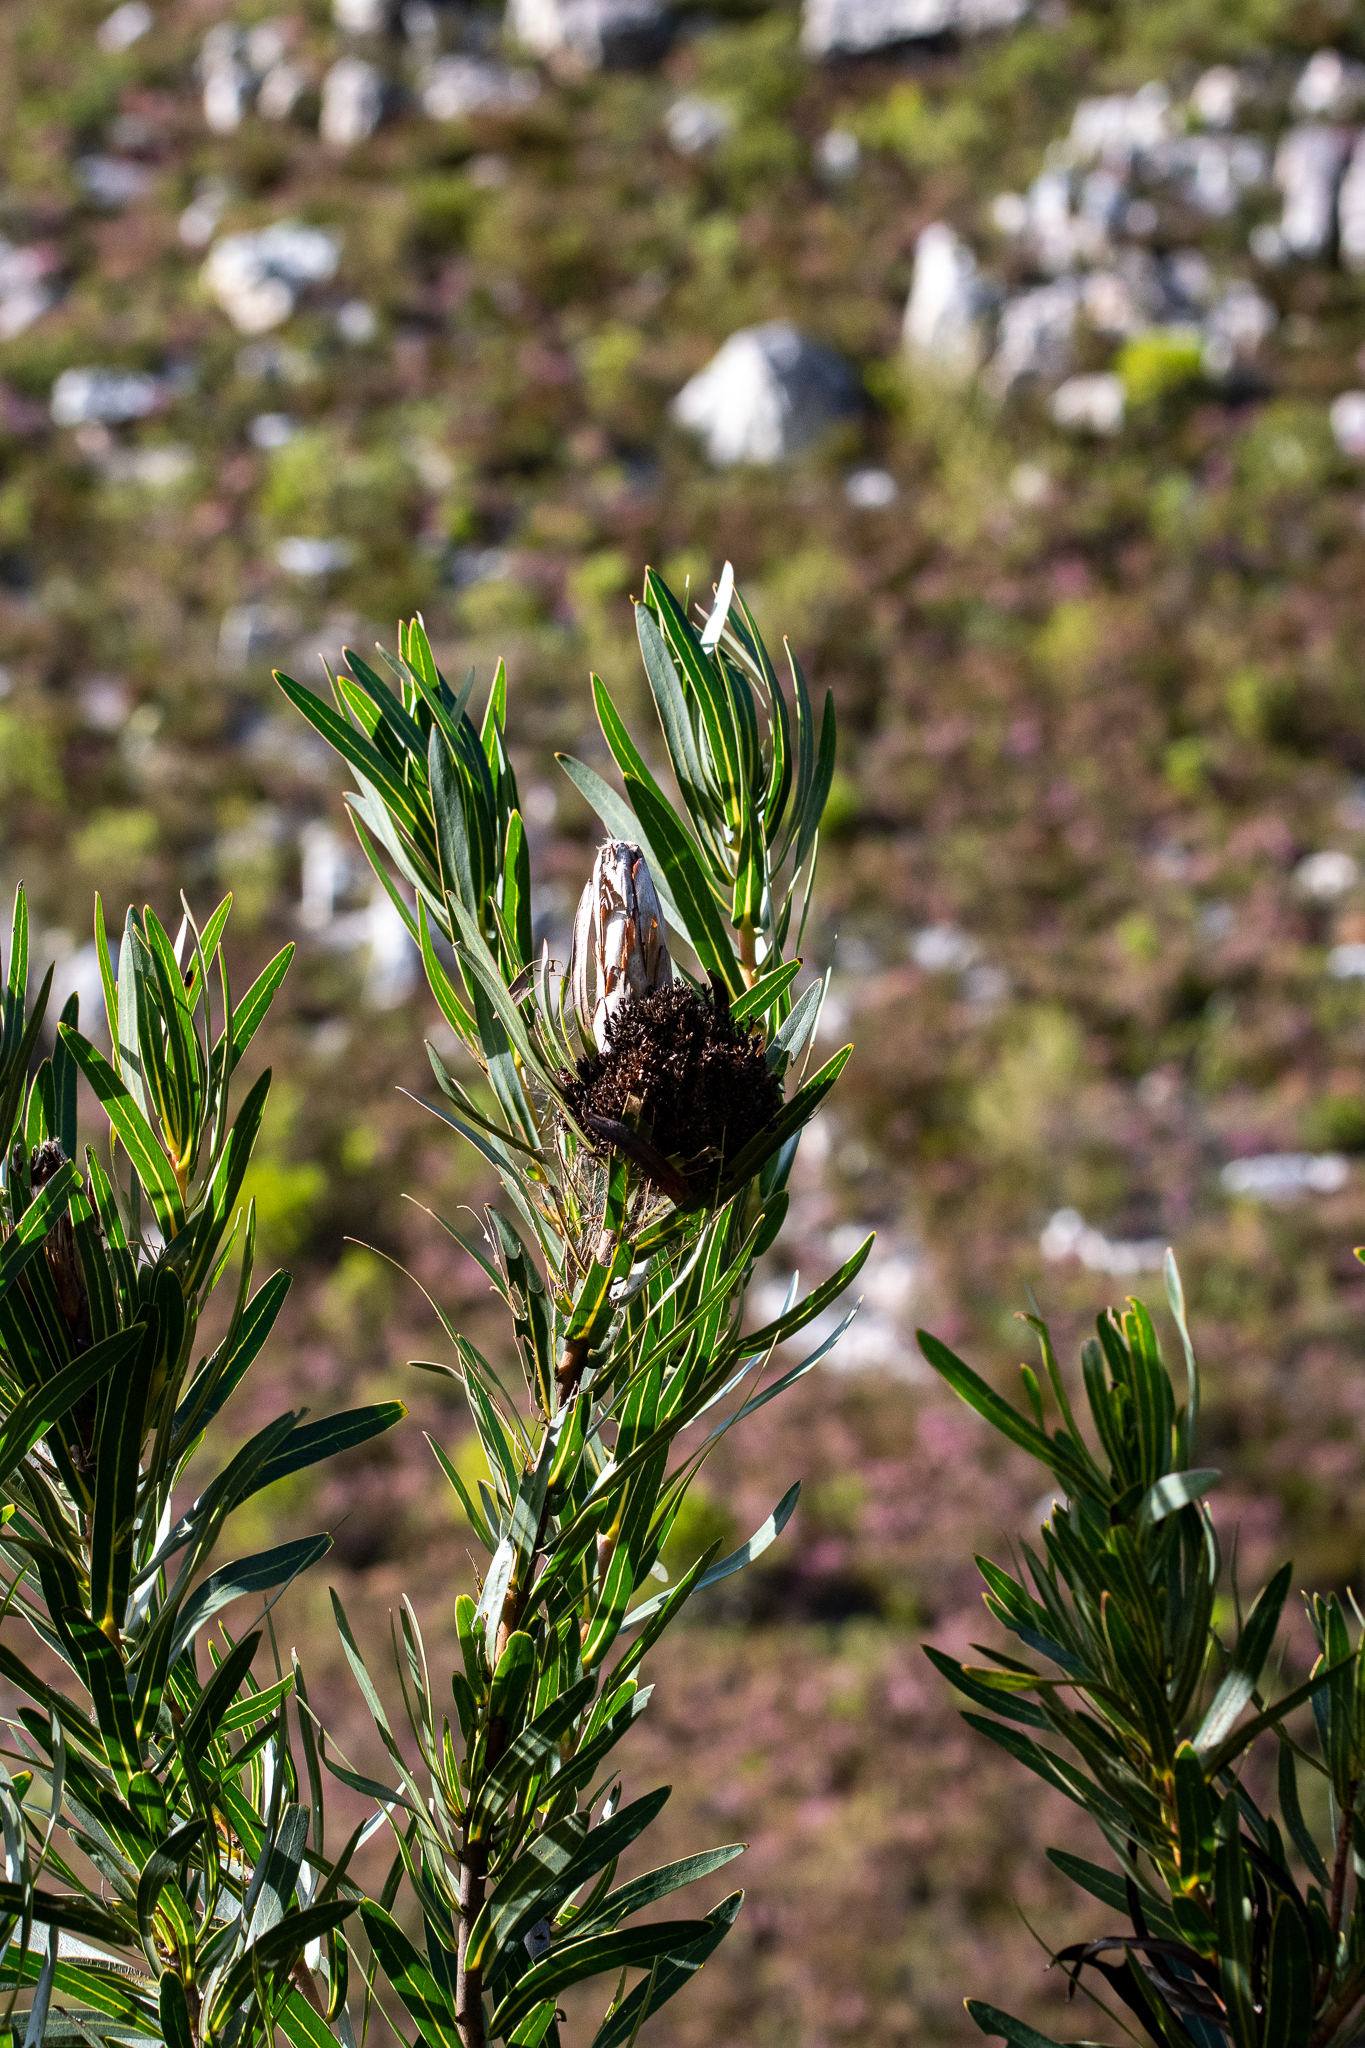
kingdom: Plantae
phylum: Tracheophyta
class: Magnoliopsida
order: Proteales
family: Proteaceae
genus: Protea
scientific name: Protea lepidocarpodendron
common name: Black-bearded protea
